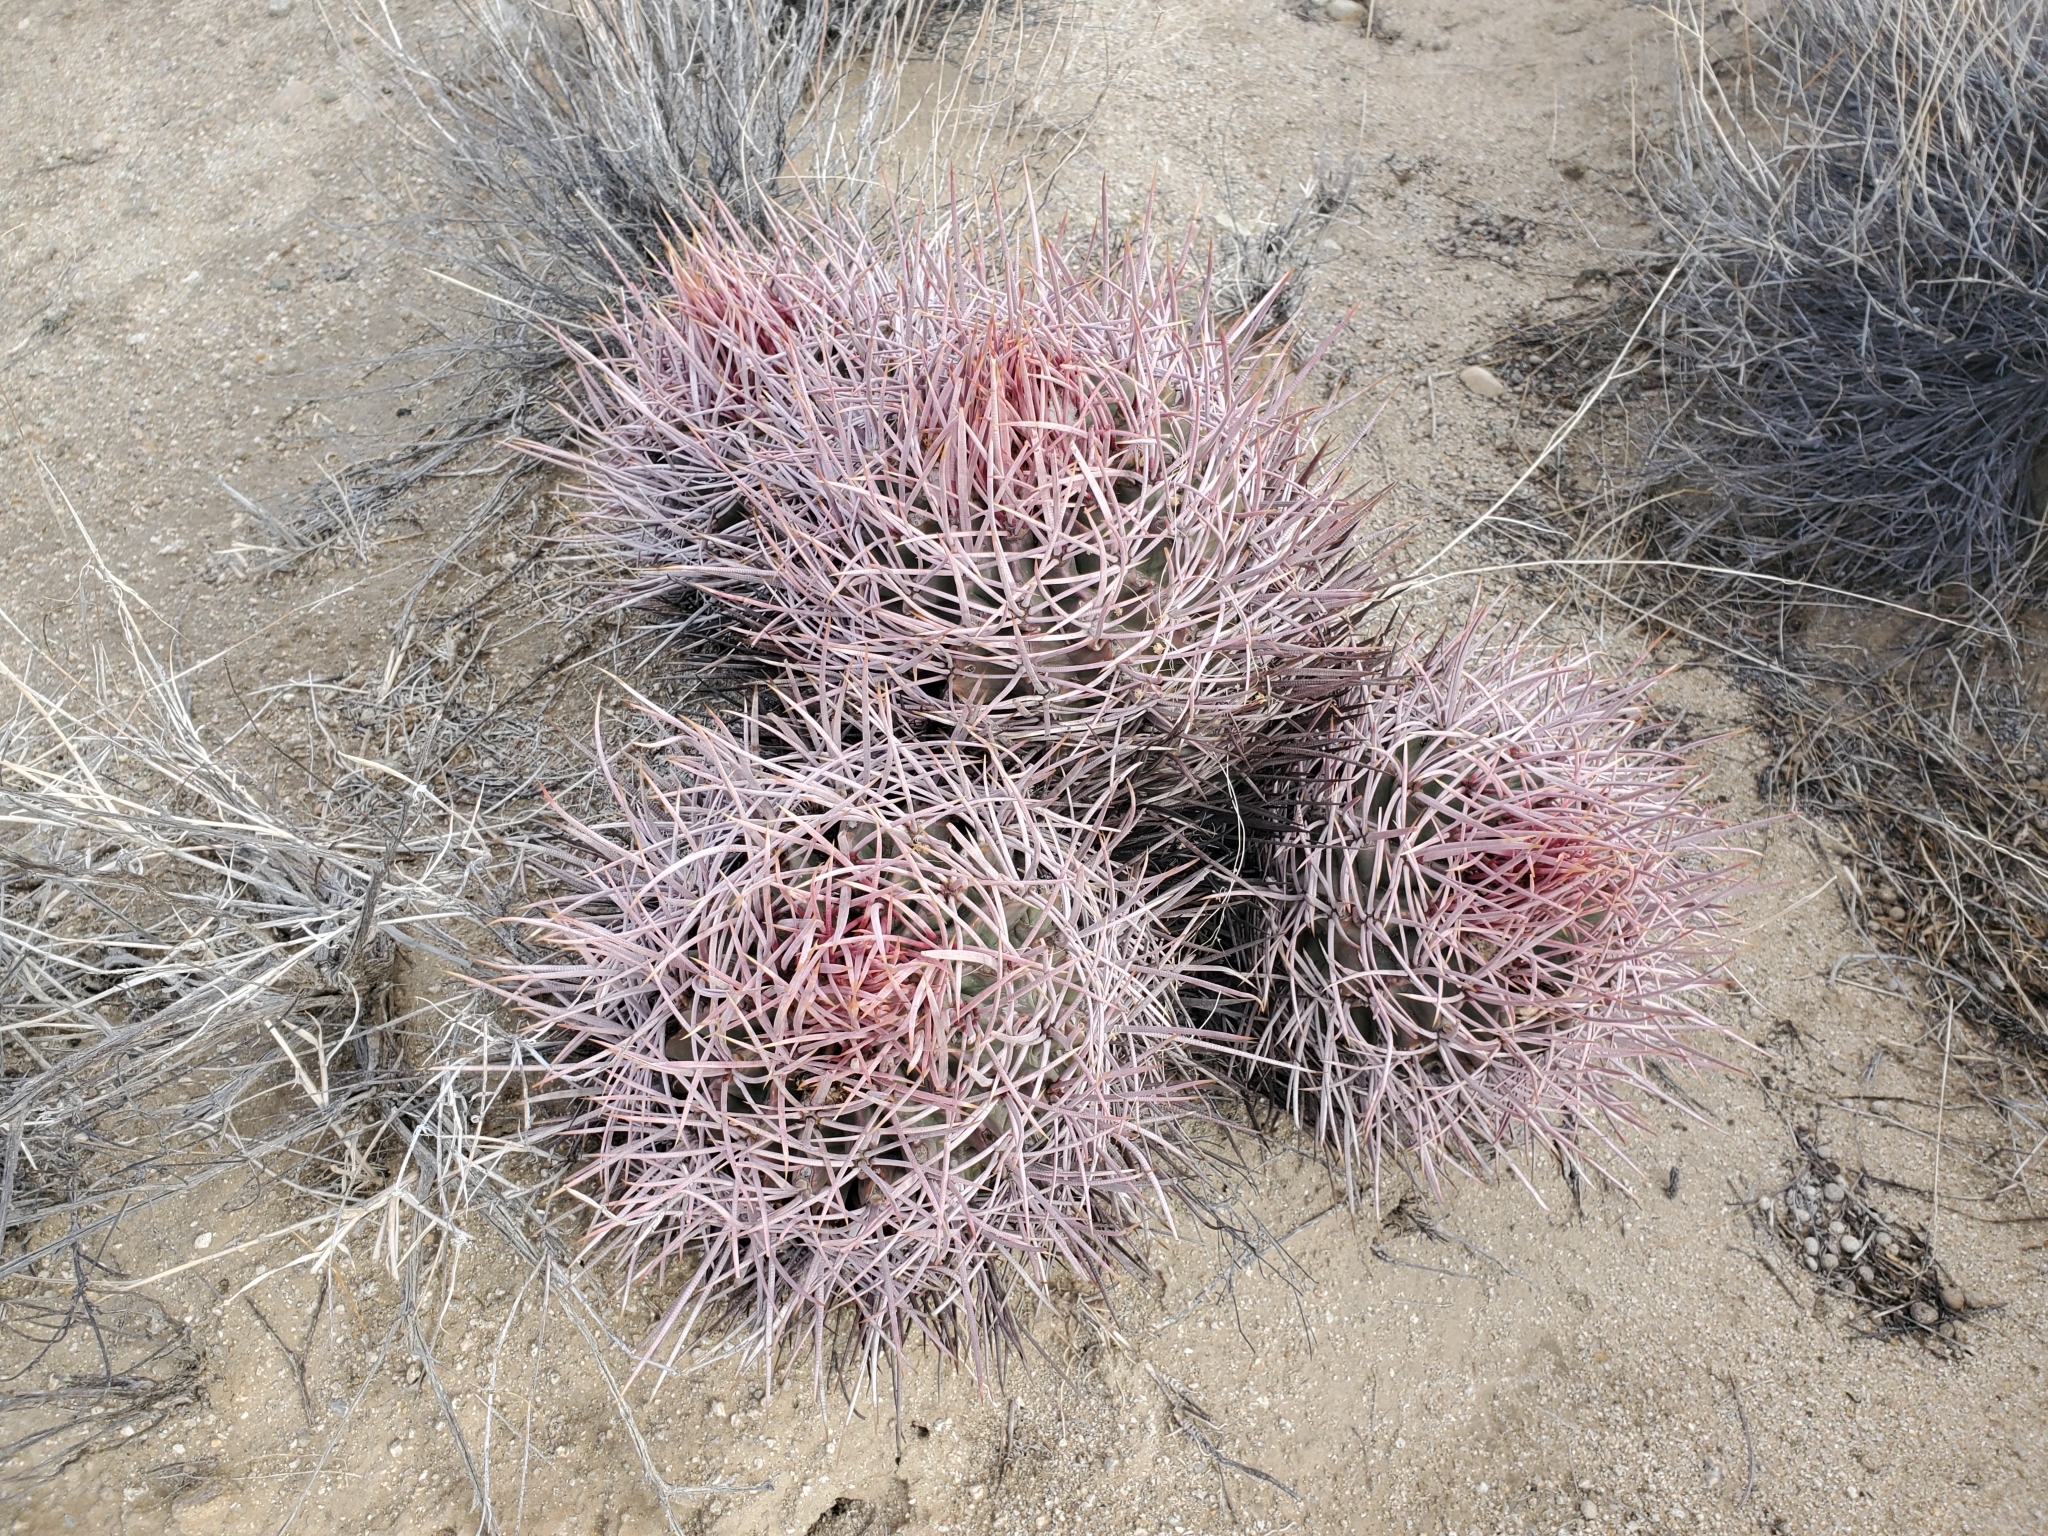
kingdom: Plantae
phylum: Tracheophyta
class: Magnoliopsida
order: Caryophyllales
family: Cactaceae
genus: Echinocactus
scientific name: Echinocactus polycephalus
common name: Cottontop cactus
